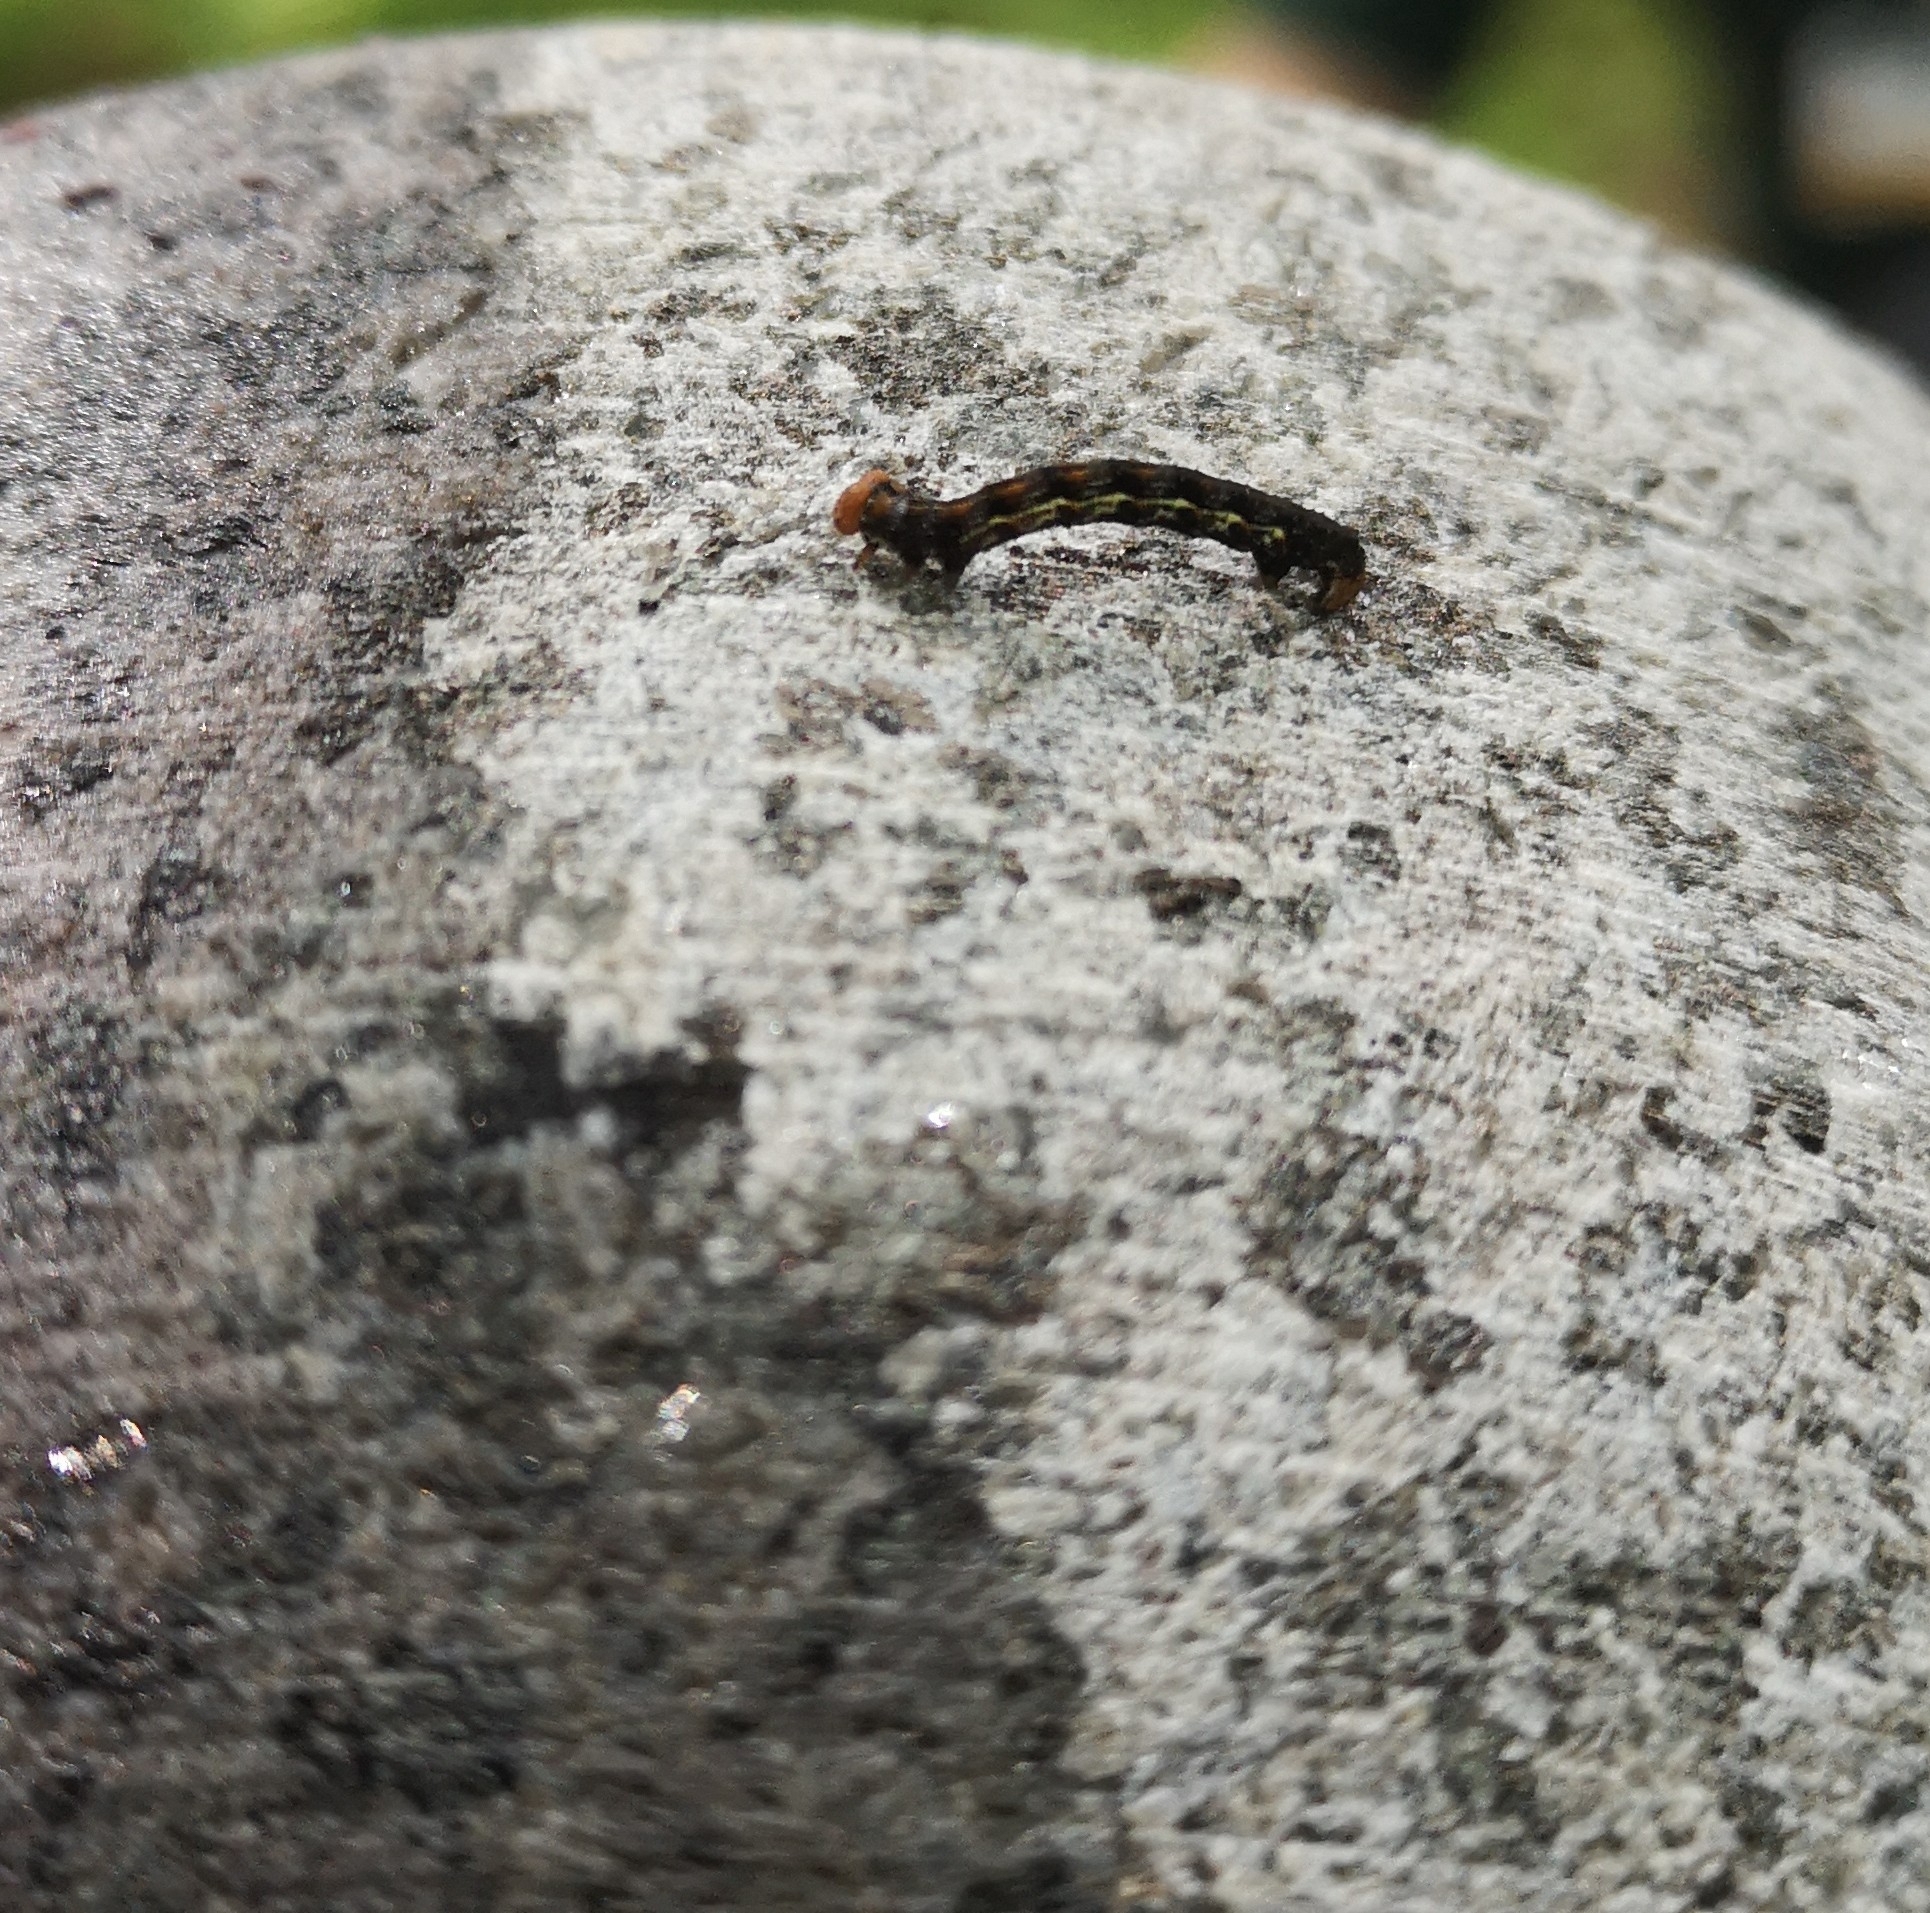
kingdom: Animalia
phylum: Arthropoda
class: Insecta
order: Lepidoptera
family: Geometridae
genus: Erannis
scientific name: Erannis defoliaria
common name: Mottled umber
